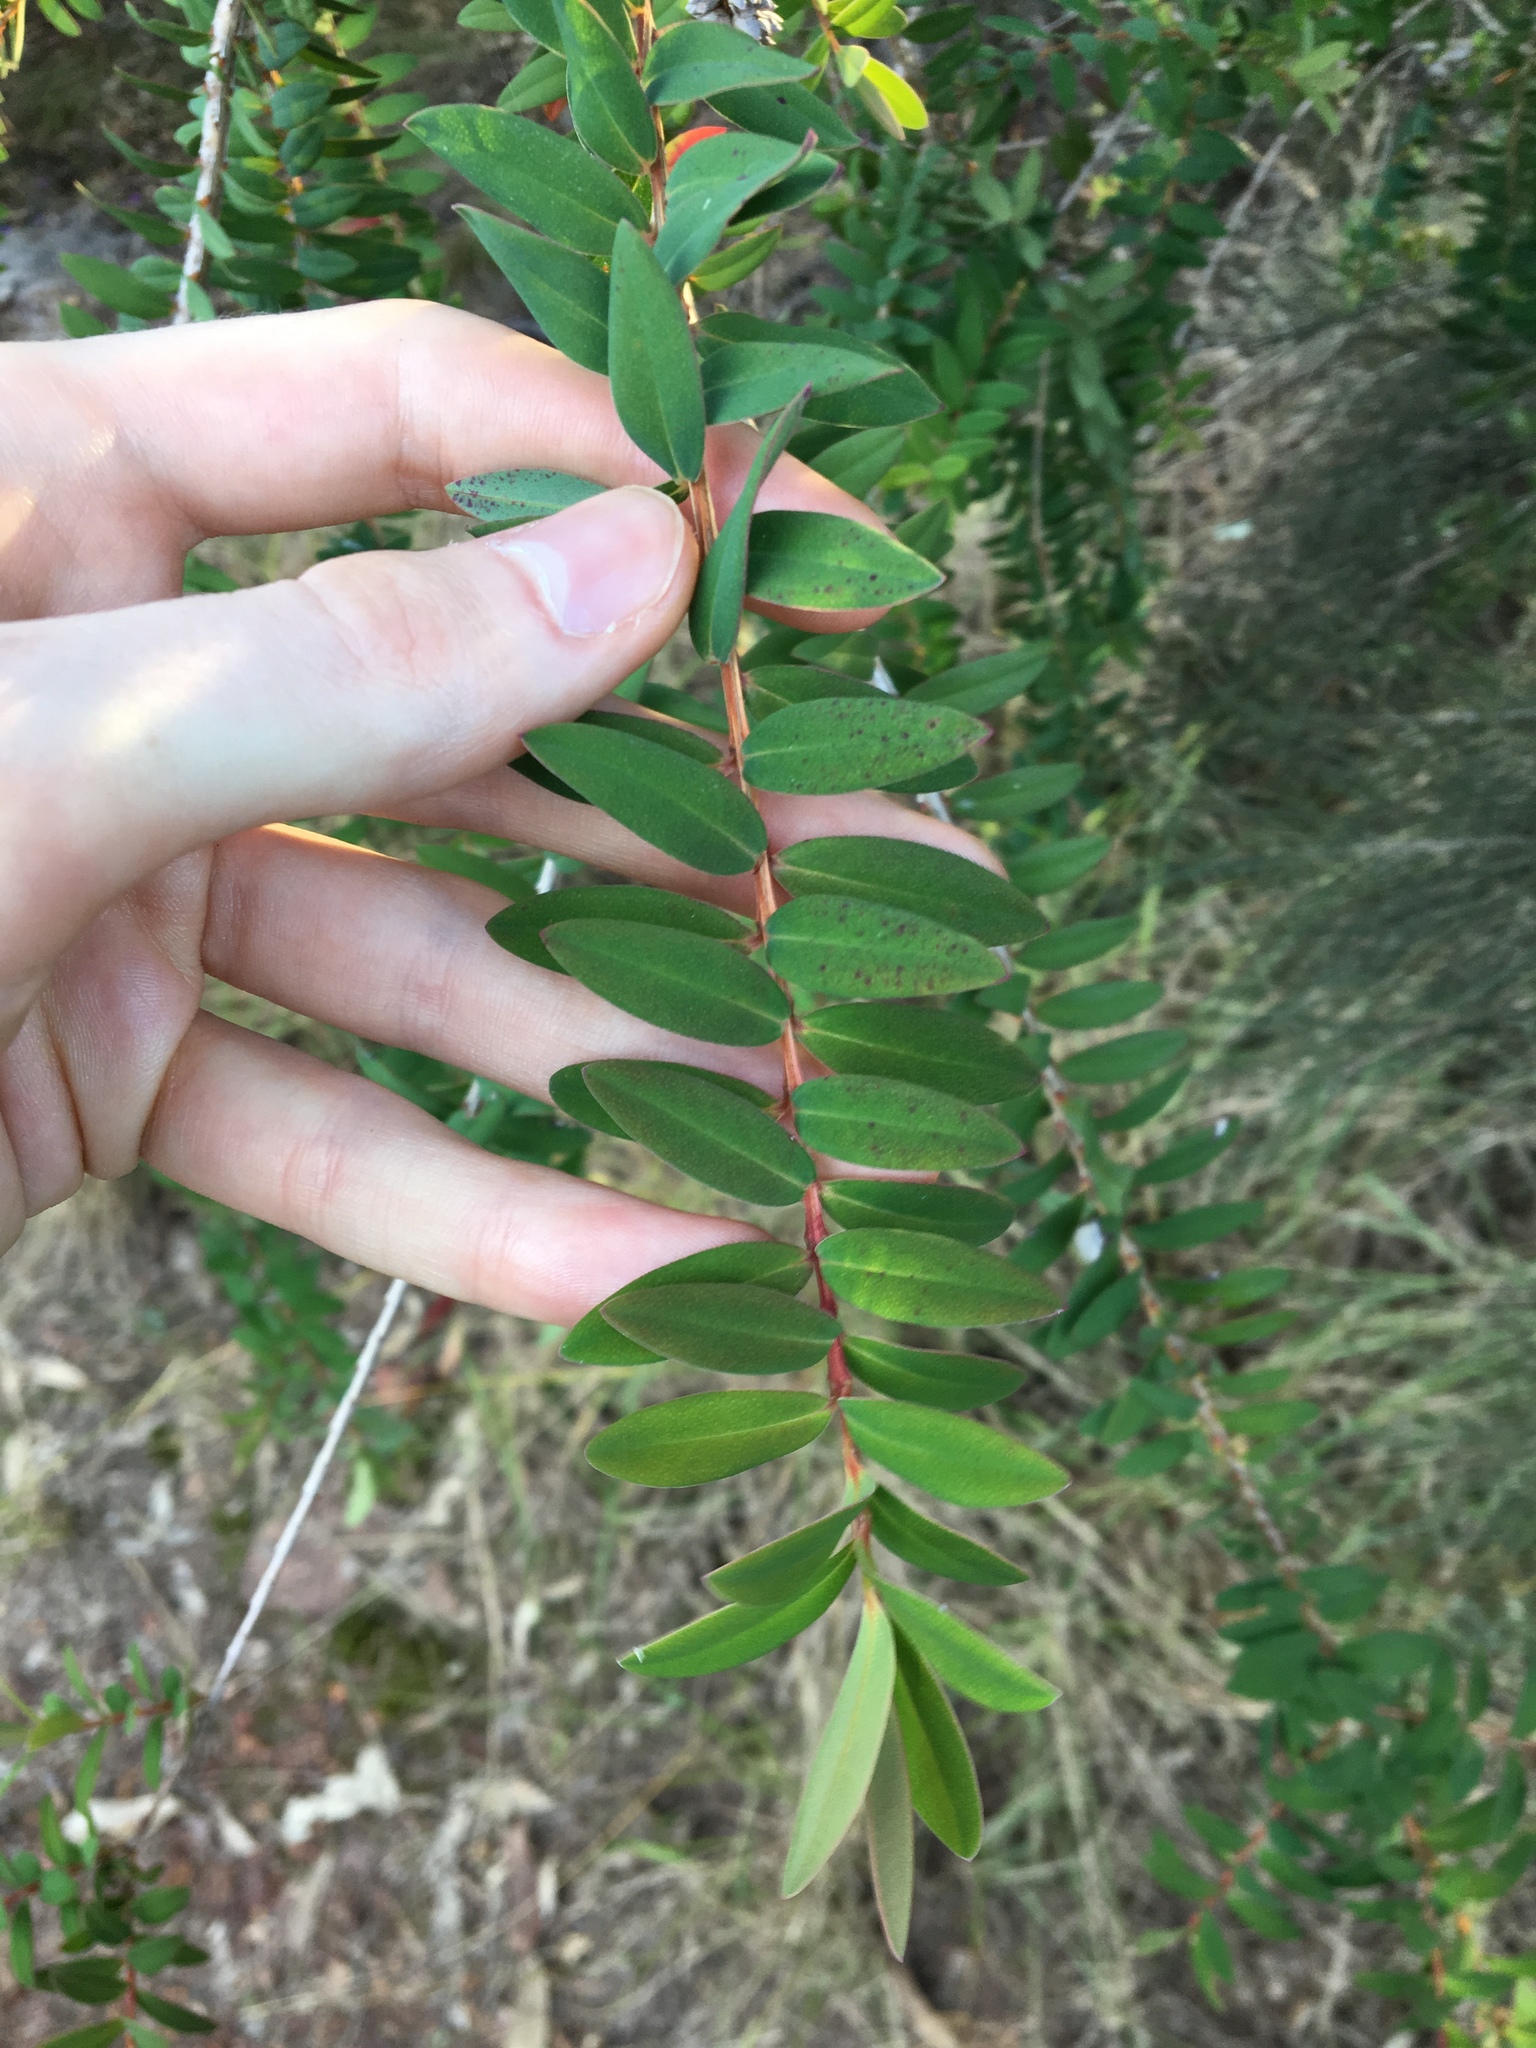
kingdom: Plantae
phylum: Tracheophyta
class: Magnoliopsida
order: Myrtales
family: Myrtaceae
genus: Melaleuca
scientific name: Melaleuca hypericifolia
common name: Red honey myrtle
